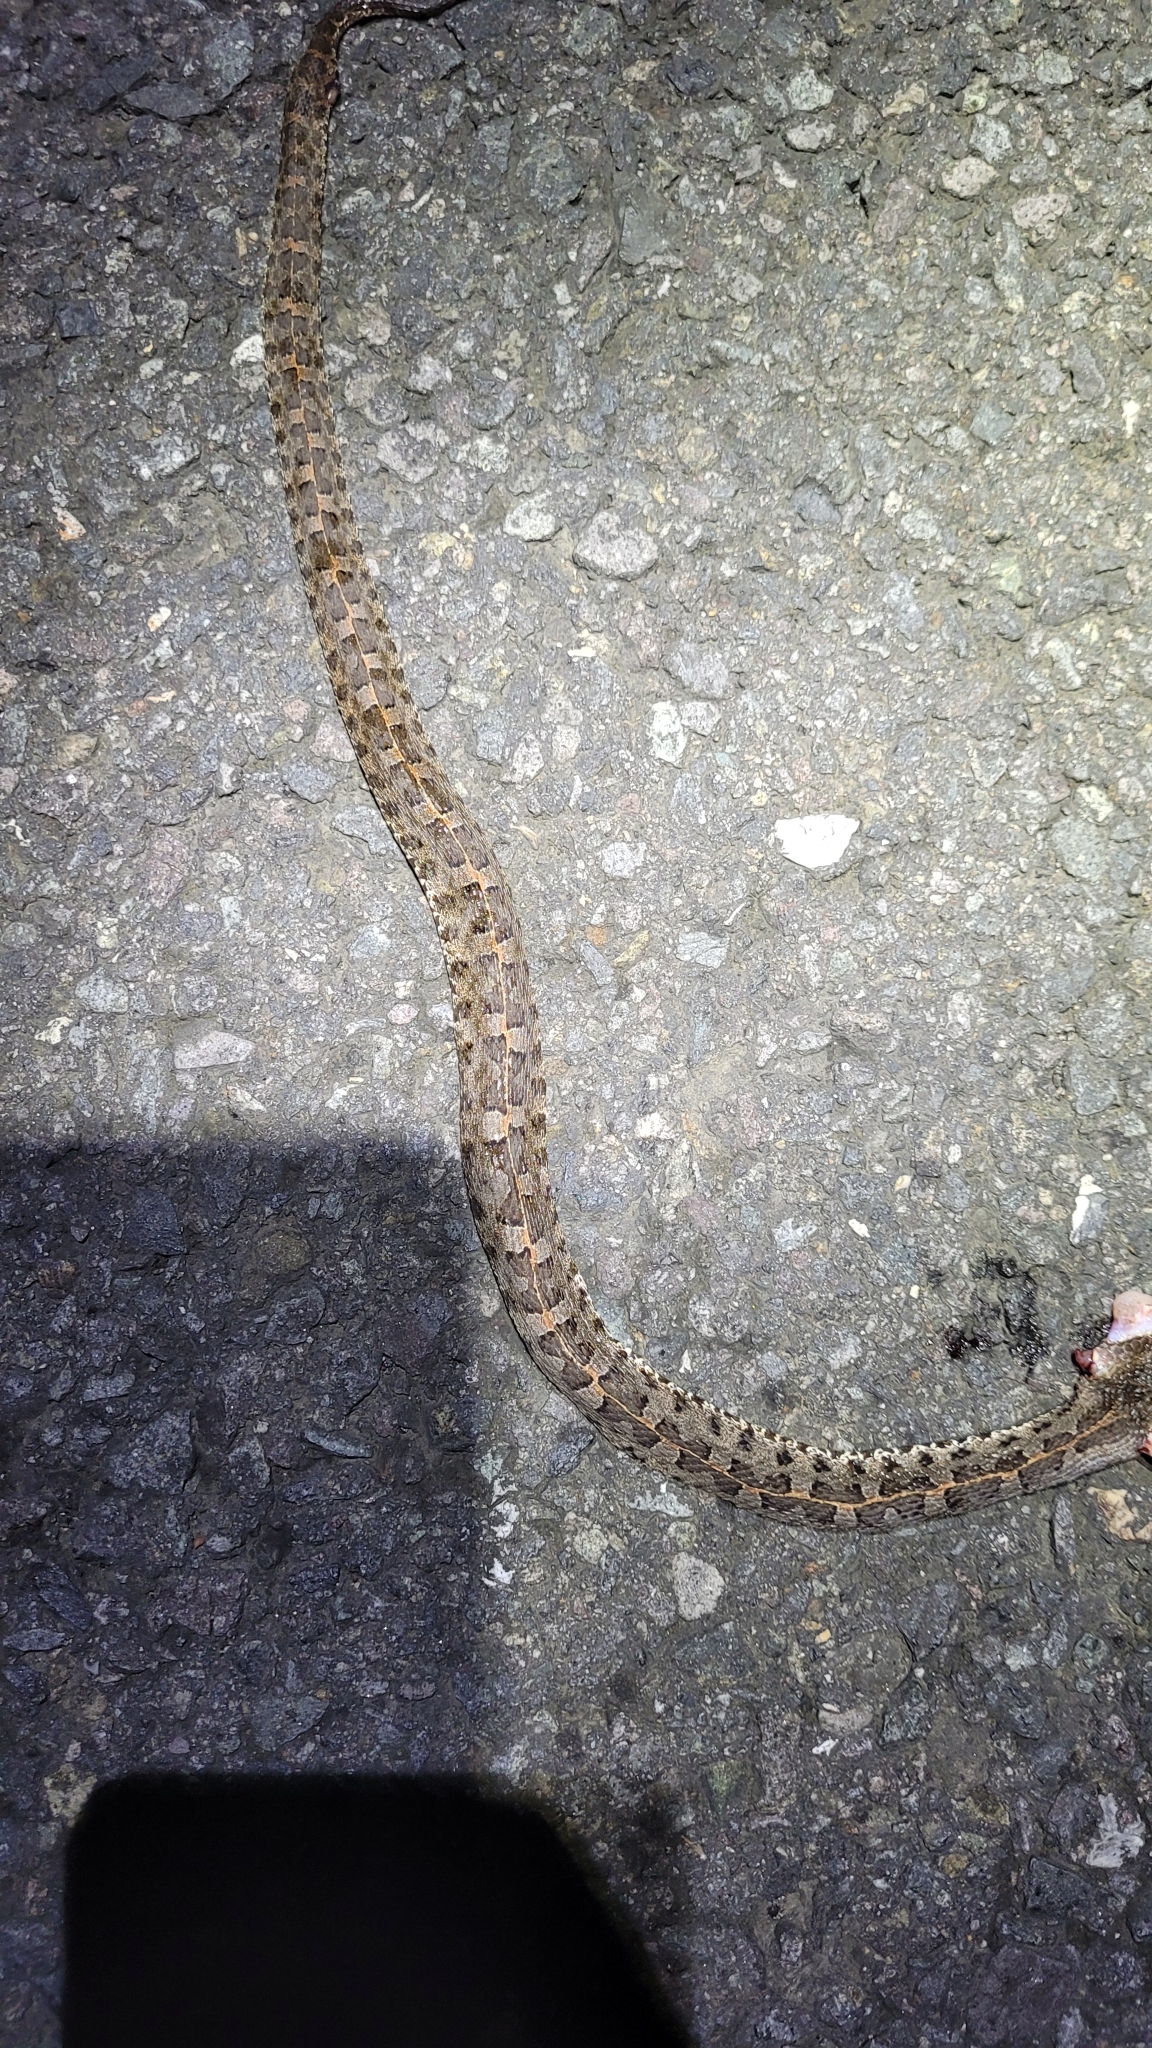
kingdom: Animalia
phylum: Chordata
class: Squamata
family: Viperidae
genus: Porthidium
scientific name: Porthidium ophryomegas
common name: Slender hognose viper
